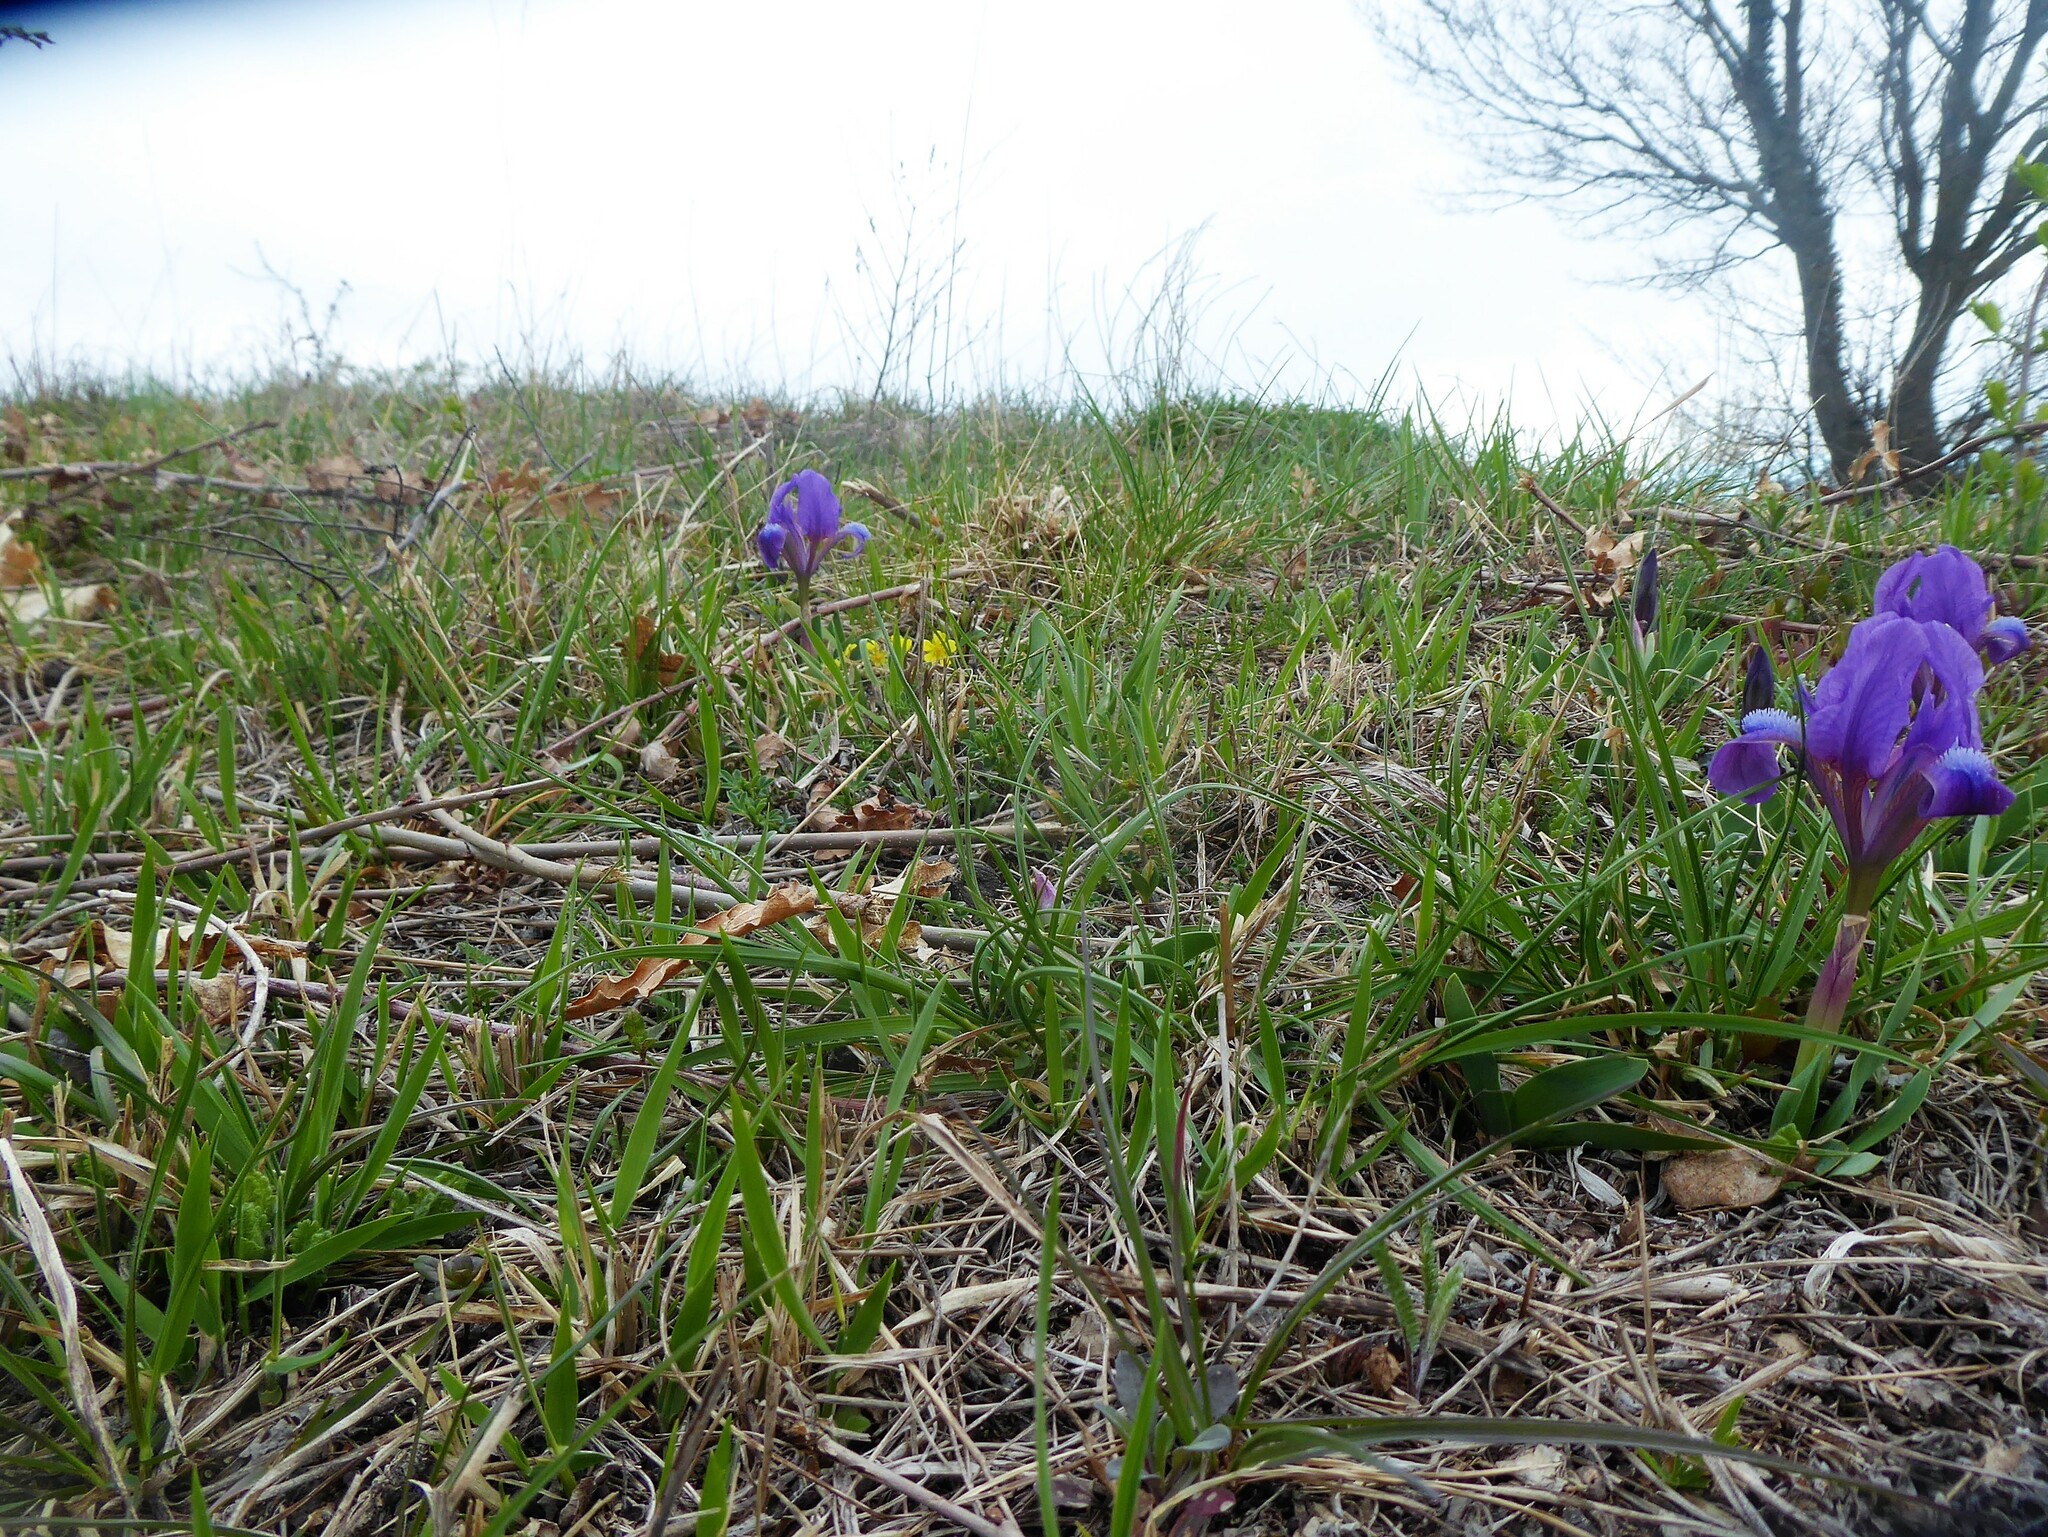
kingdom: Plantae
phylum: Tracheophyta
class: Liliopsida
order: Asparagales
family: Iridaceae
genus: Iris
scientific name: Iris pumila
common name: Dwarf iris
